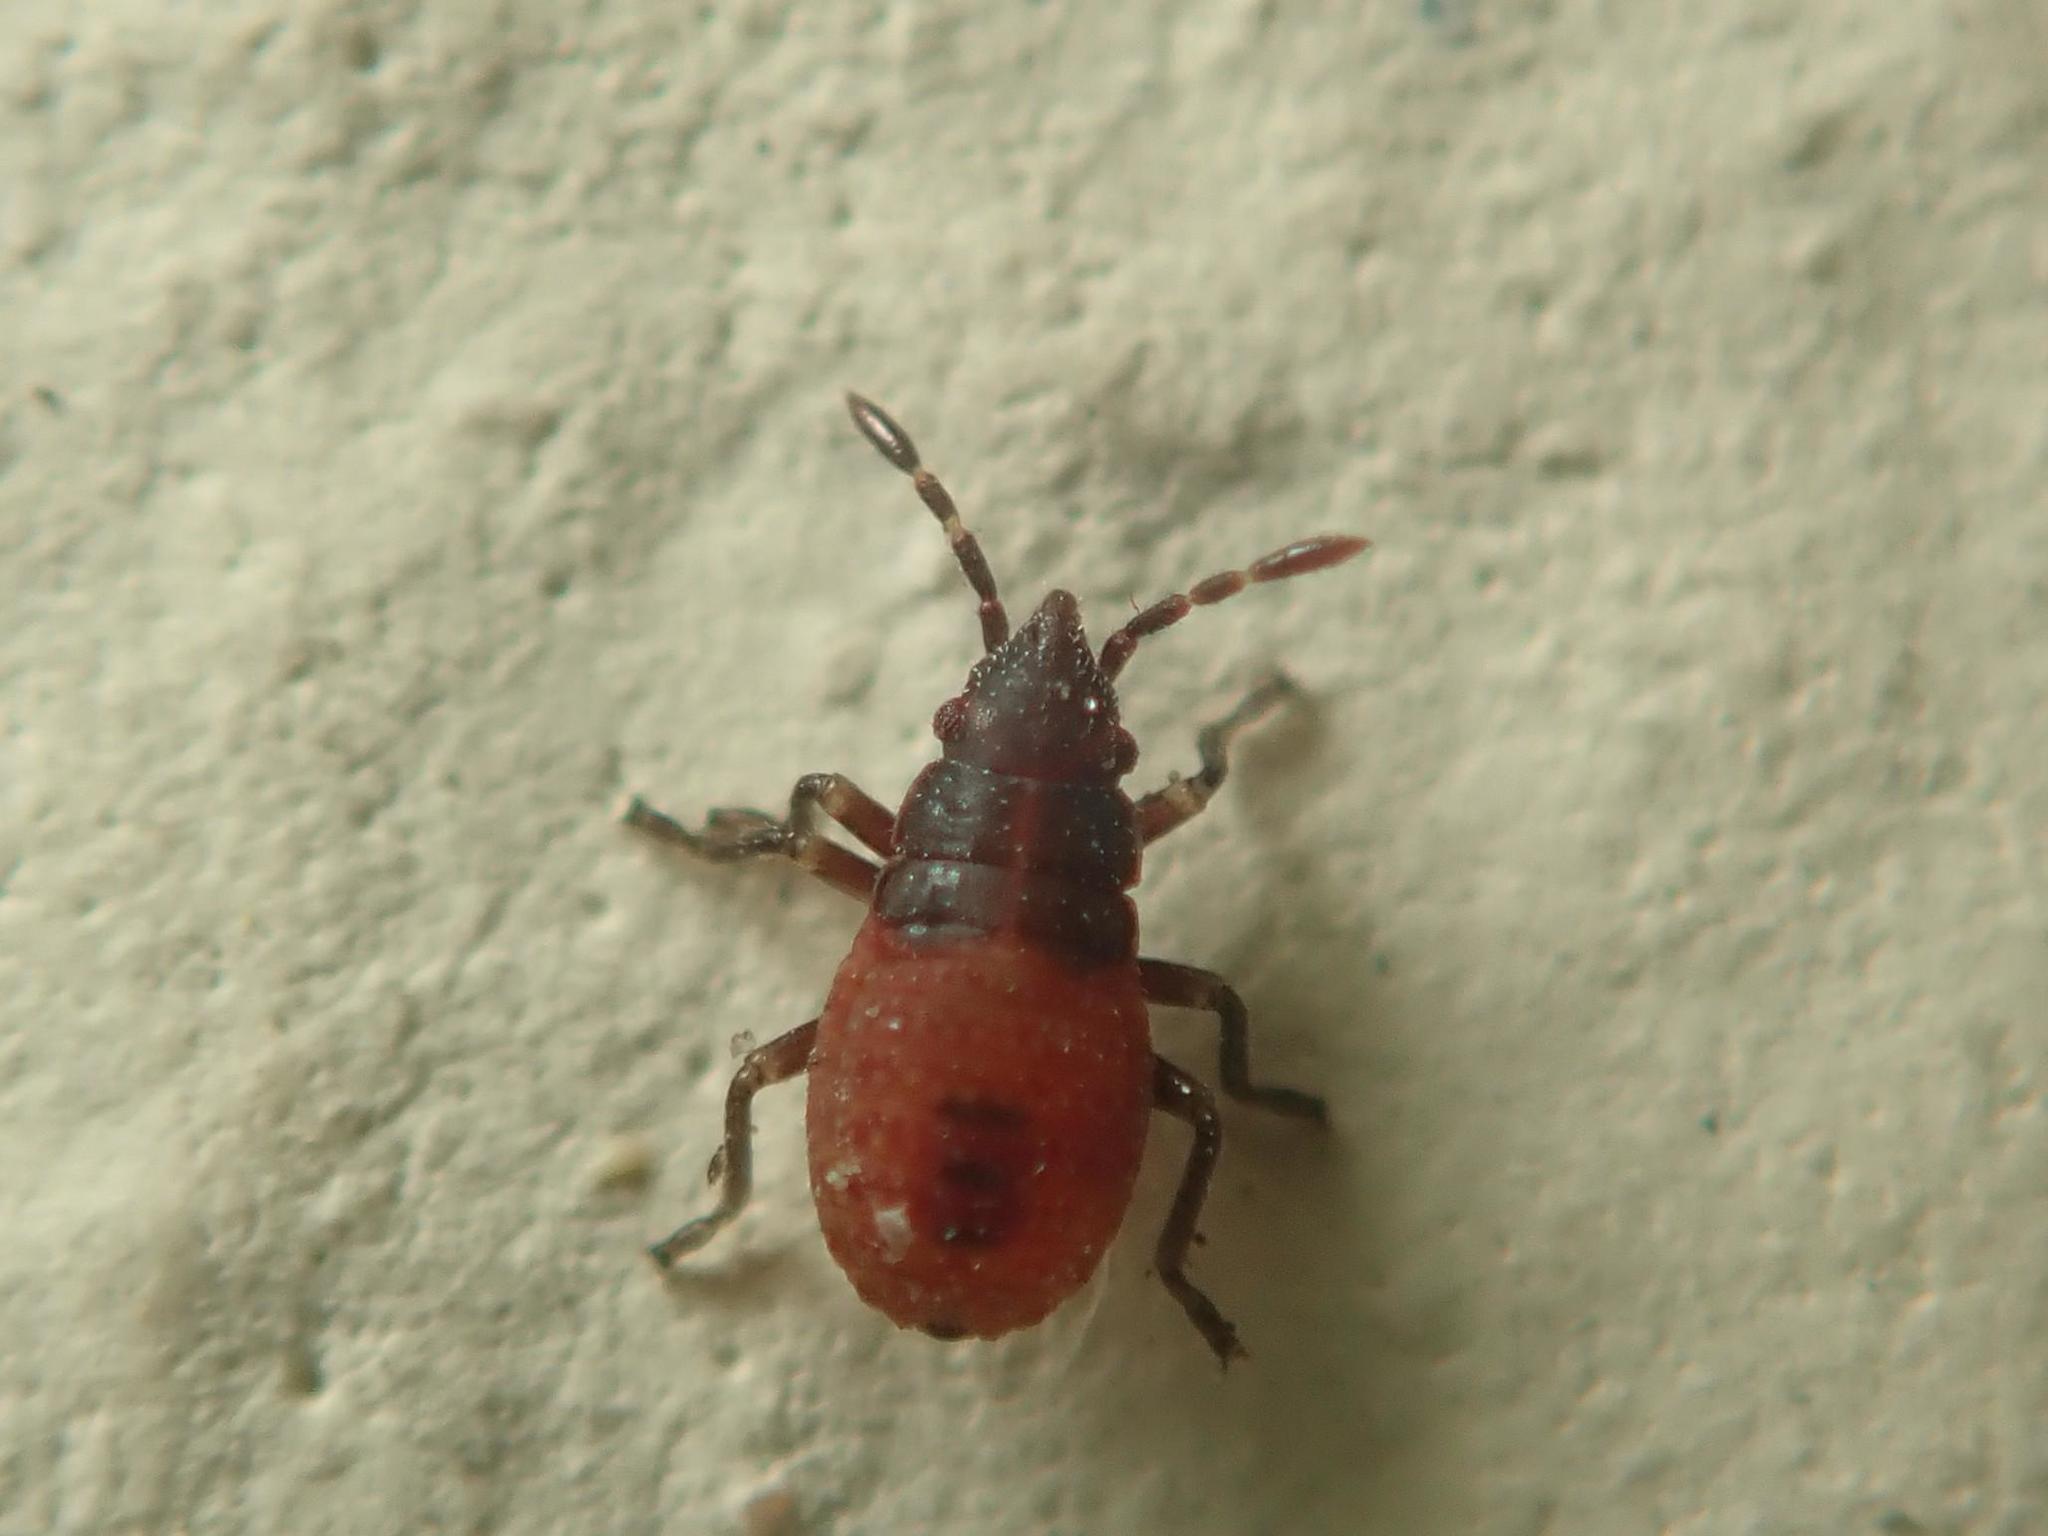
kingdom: Animalia
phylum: Arthropoda
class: Insecta
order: Hemiptera
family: Oxycarenidae
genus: Oxycarenus
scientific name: Oxycarenus lavaterae
